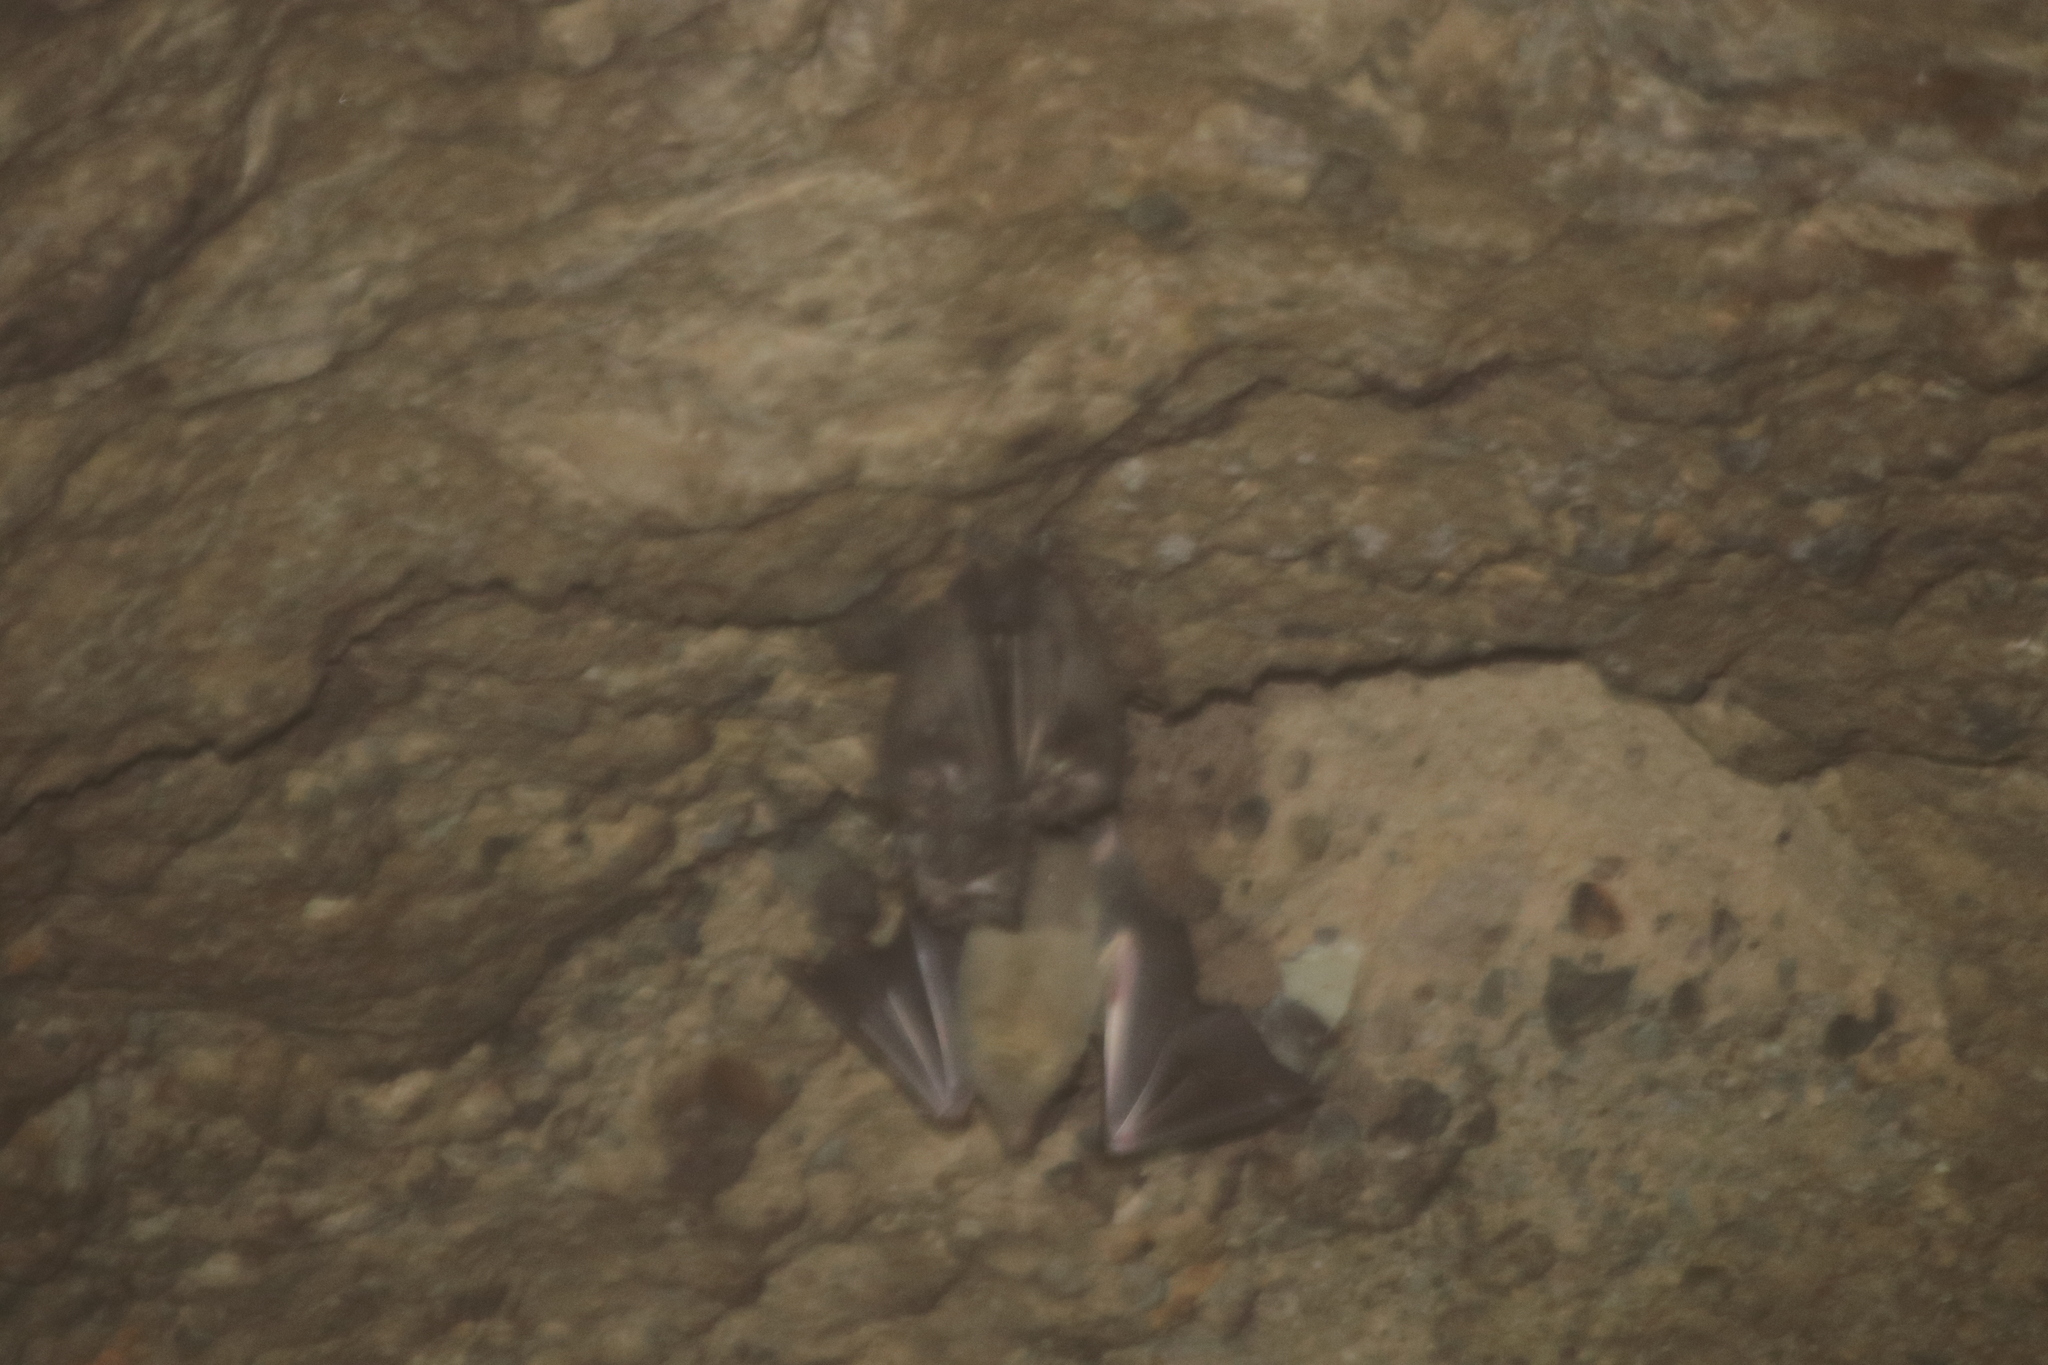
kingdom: Animalia
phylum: Chordata
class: Mammalia
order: Chiroptera
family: Phyllostomidae
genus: Leptonycteris
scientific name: Leptonycteris nivalis
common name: Greater long-nosed bat
